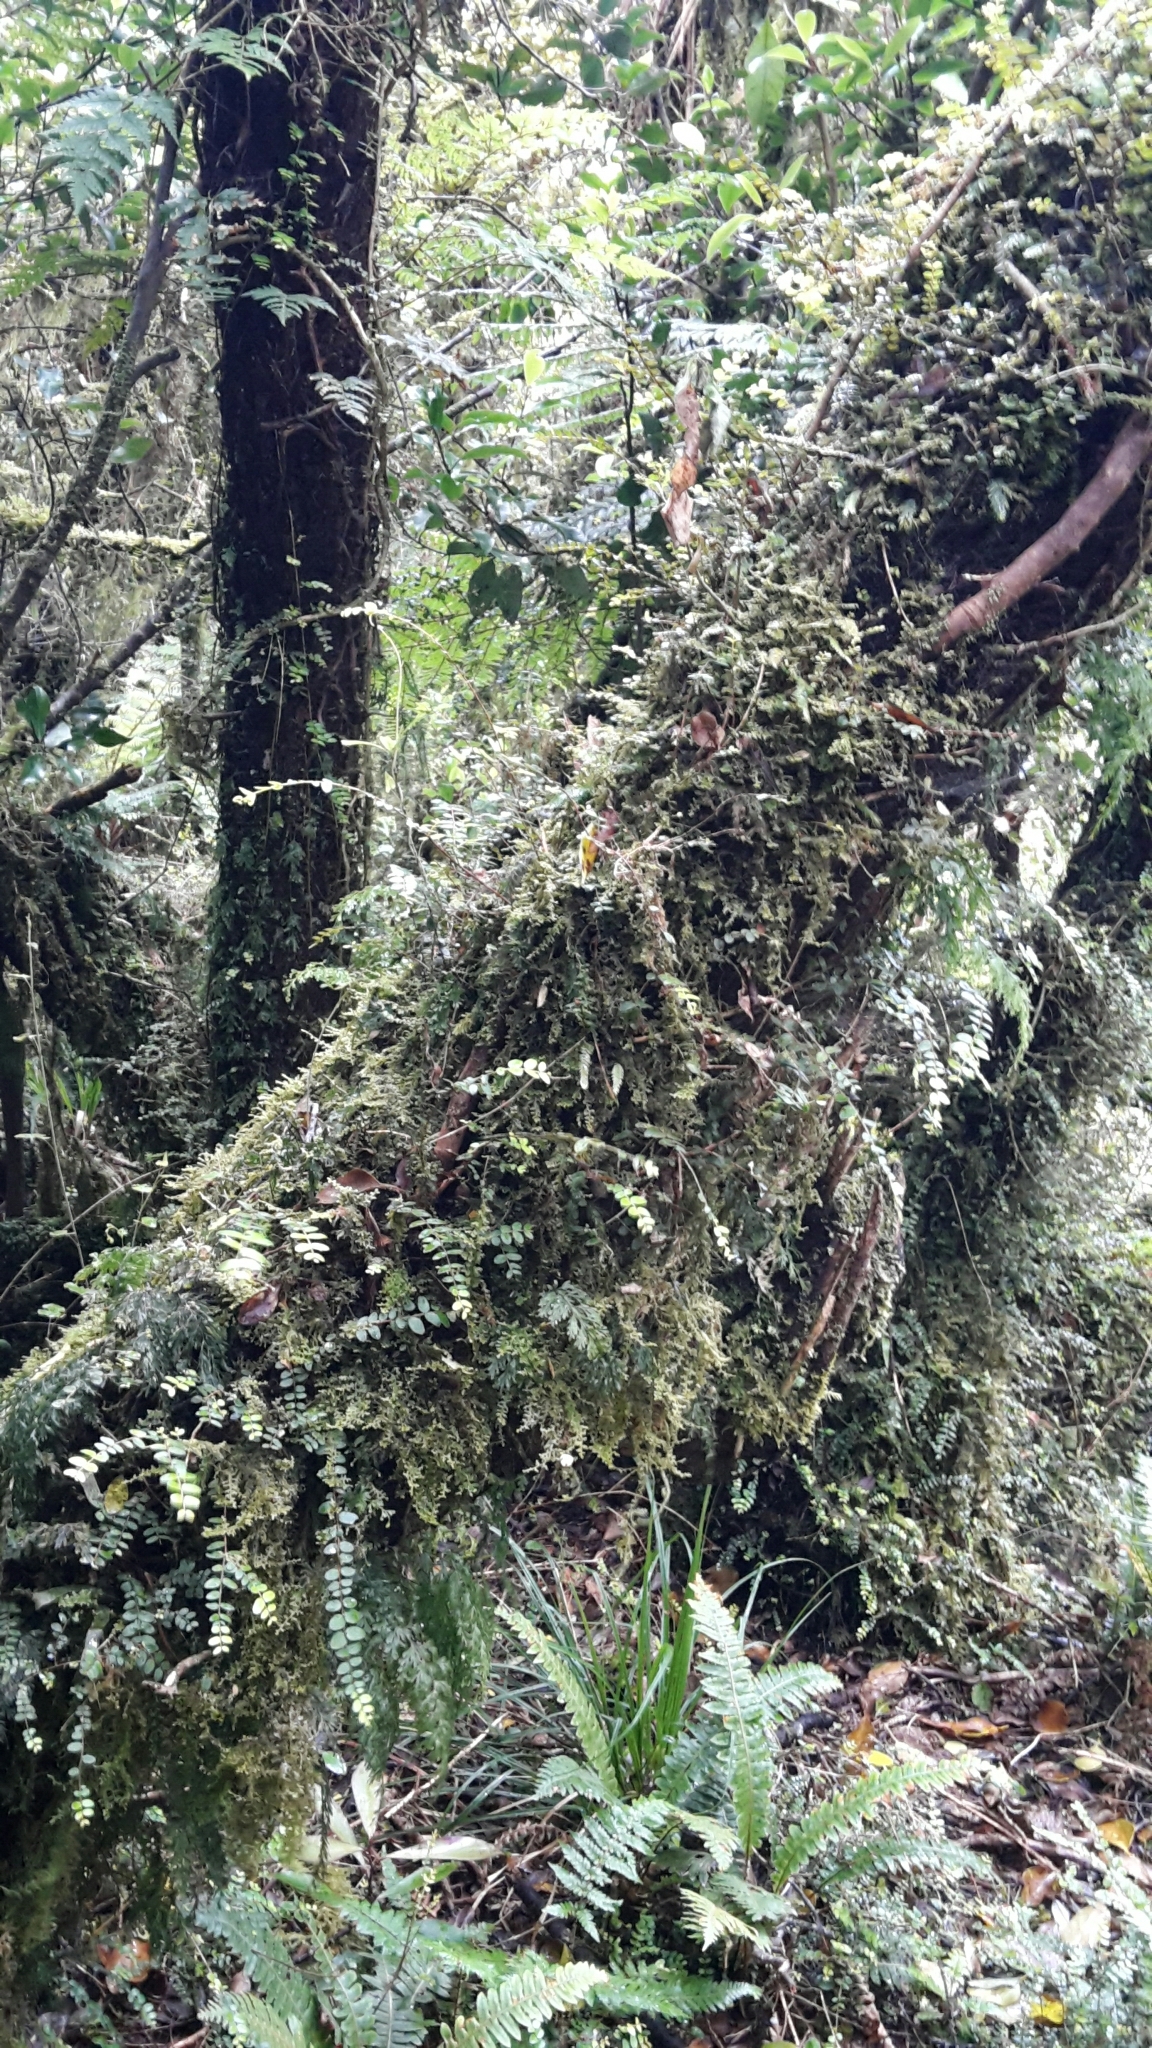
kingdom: Plantae
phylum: Tracheophyta
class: Magnoliopsida
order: Apiales
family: Griseliniaceae
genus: Griselinia
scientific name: Griselinia littoralis
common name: New zealand broadleaf
